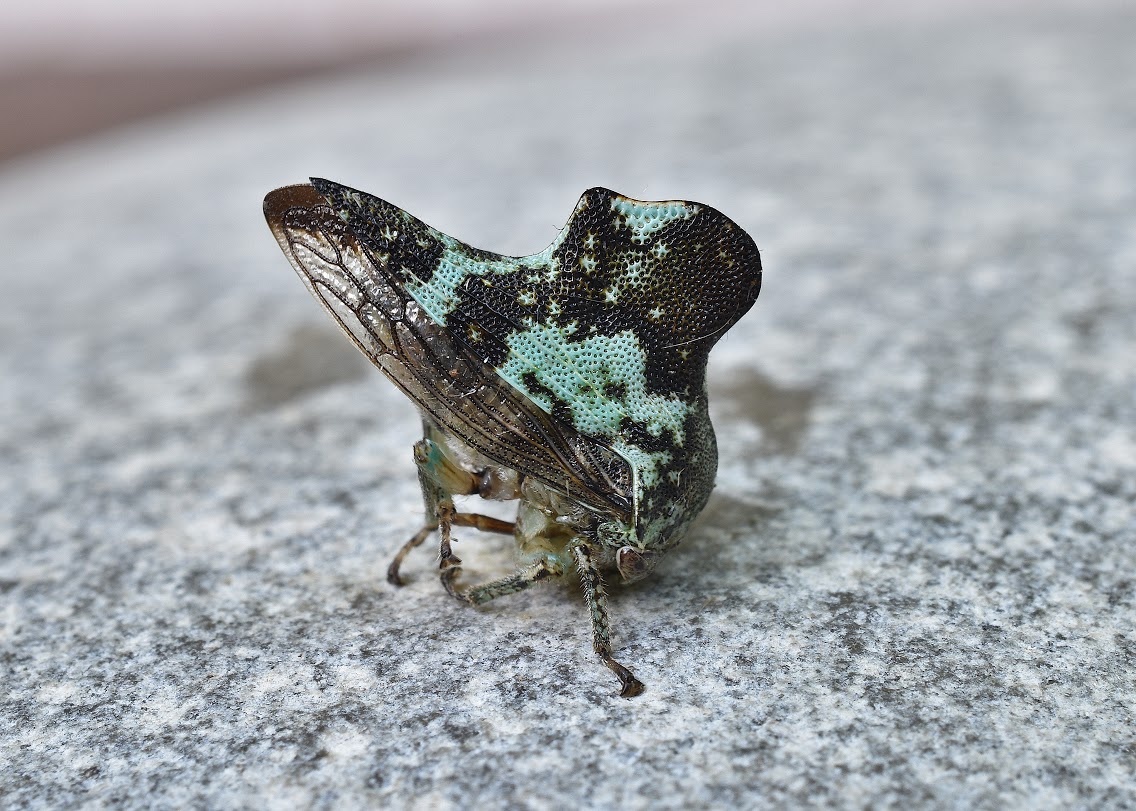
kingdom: Animalia
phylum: Arthropoda
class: Insecta
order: Hemiptera
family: Membracidae
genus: Telamona
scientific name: Telamona concava
